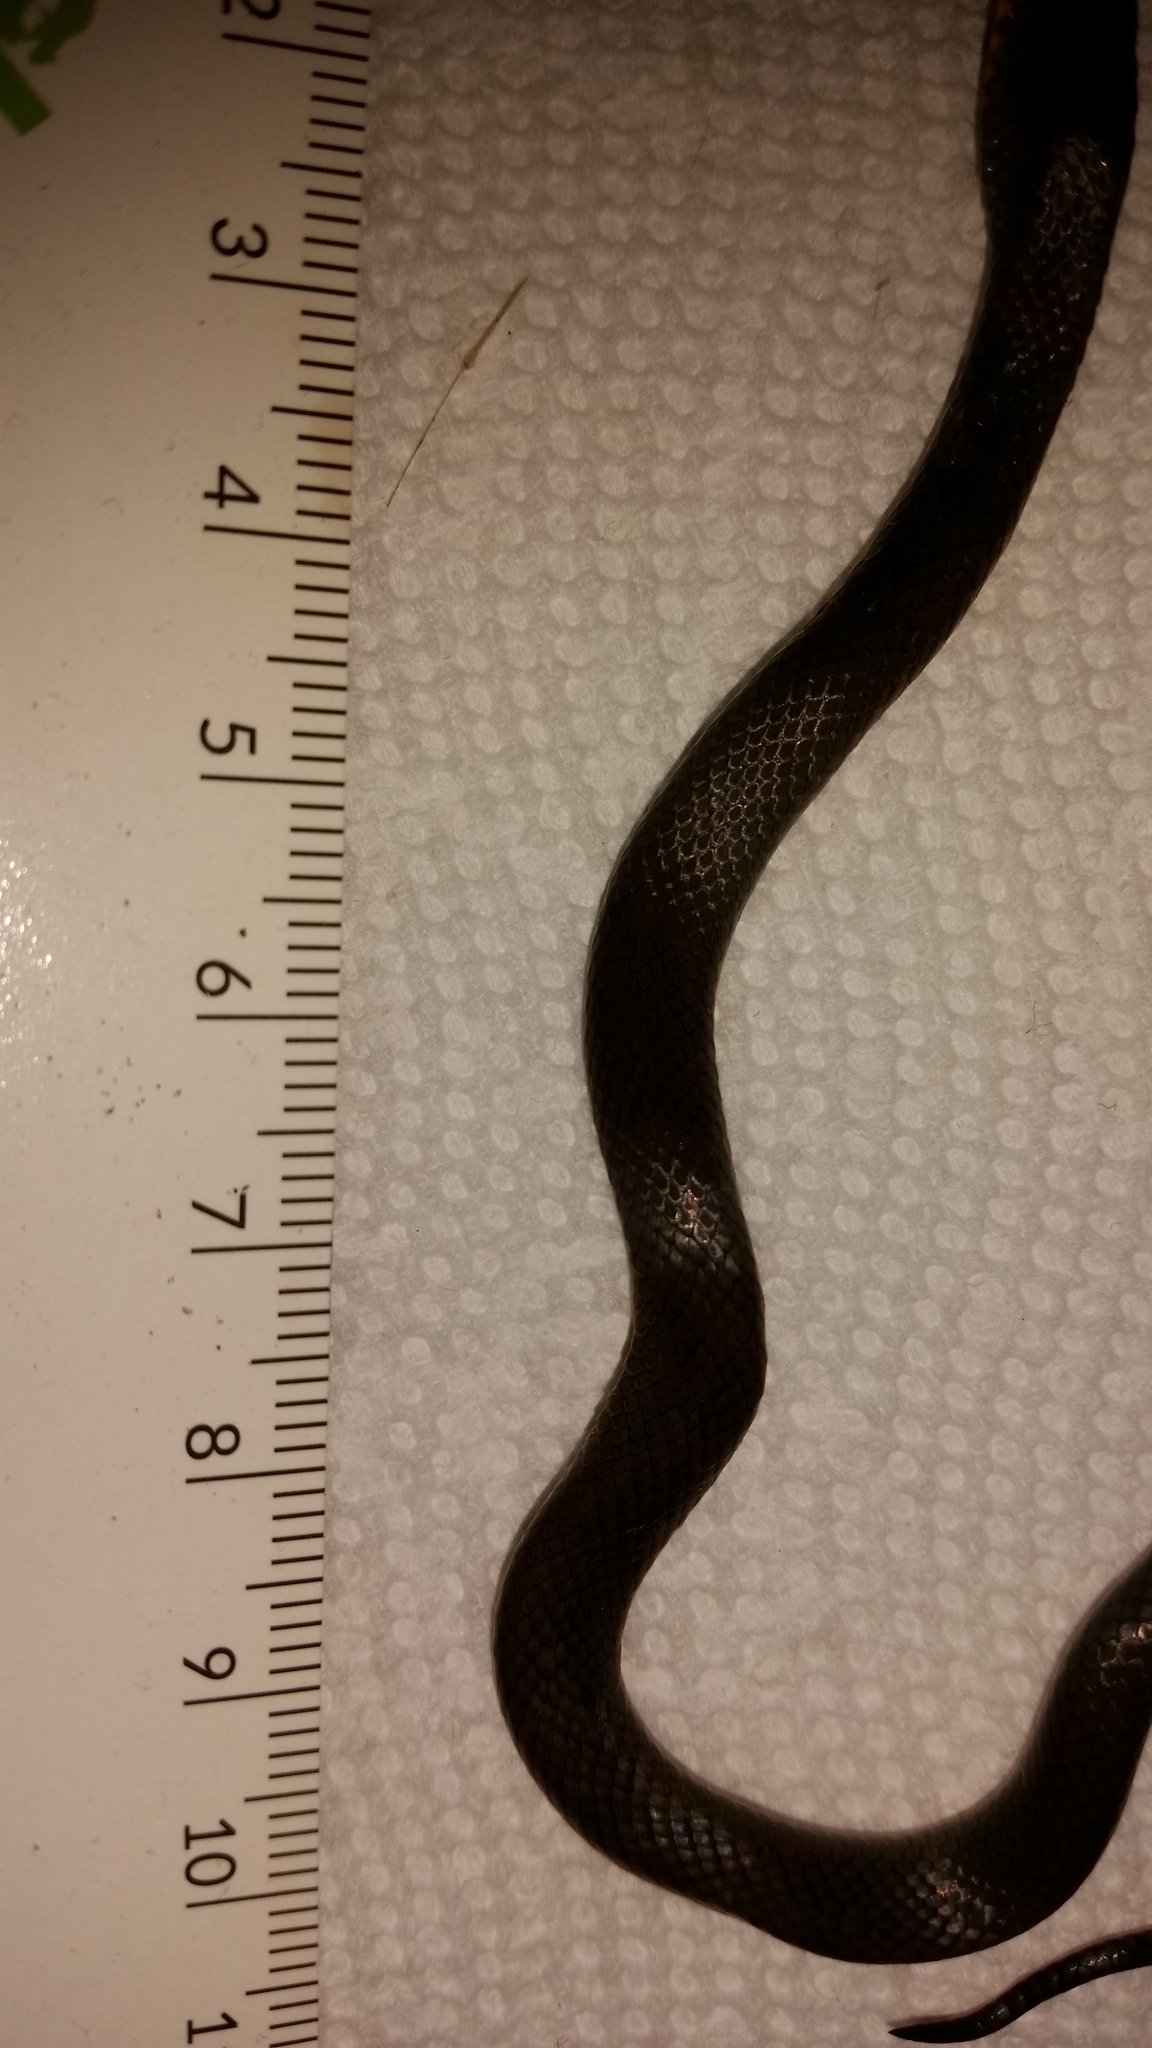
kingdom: Animalia
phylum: Chordata
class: Squamata
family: Colubridae
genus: Diadophis
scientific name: Diadophis punctatus
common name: Ringneck snake
